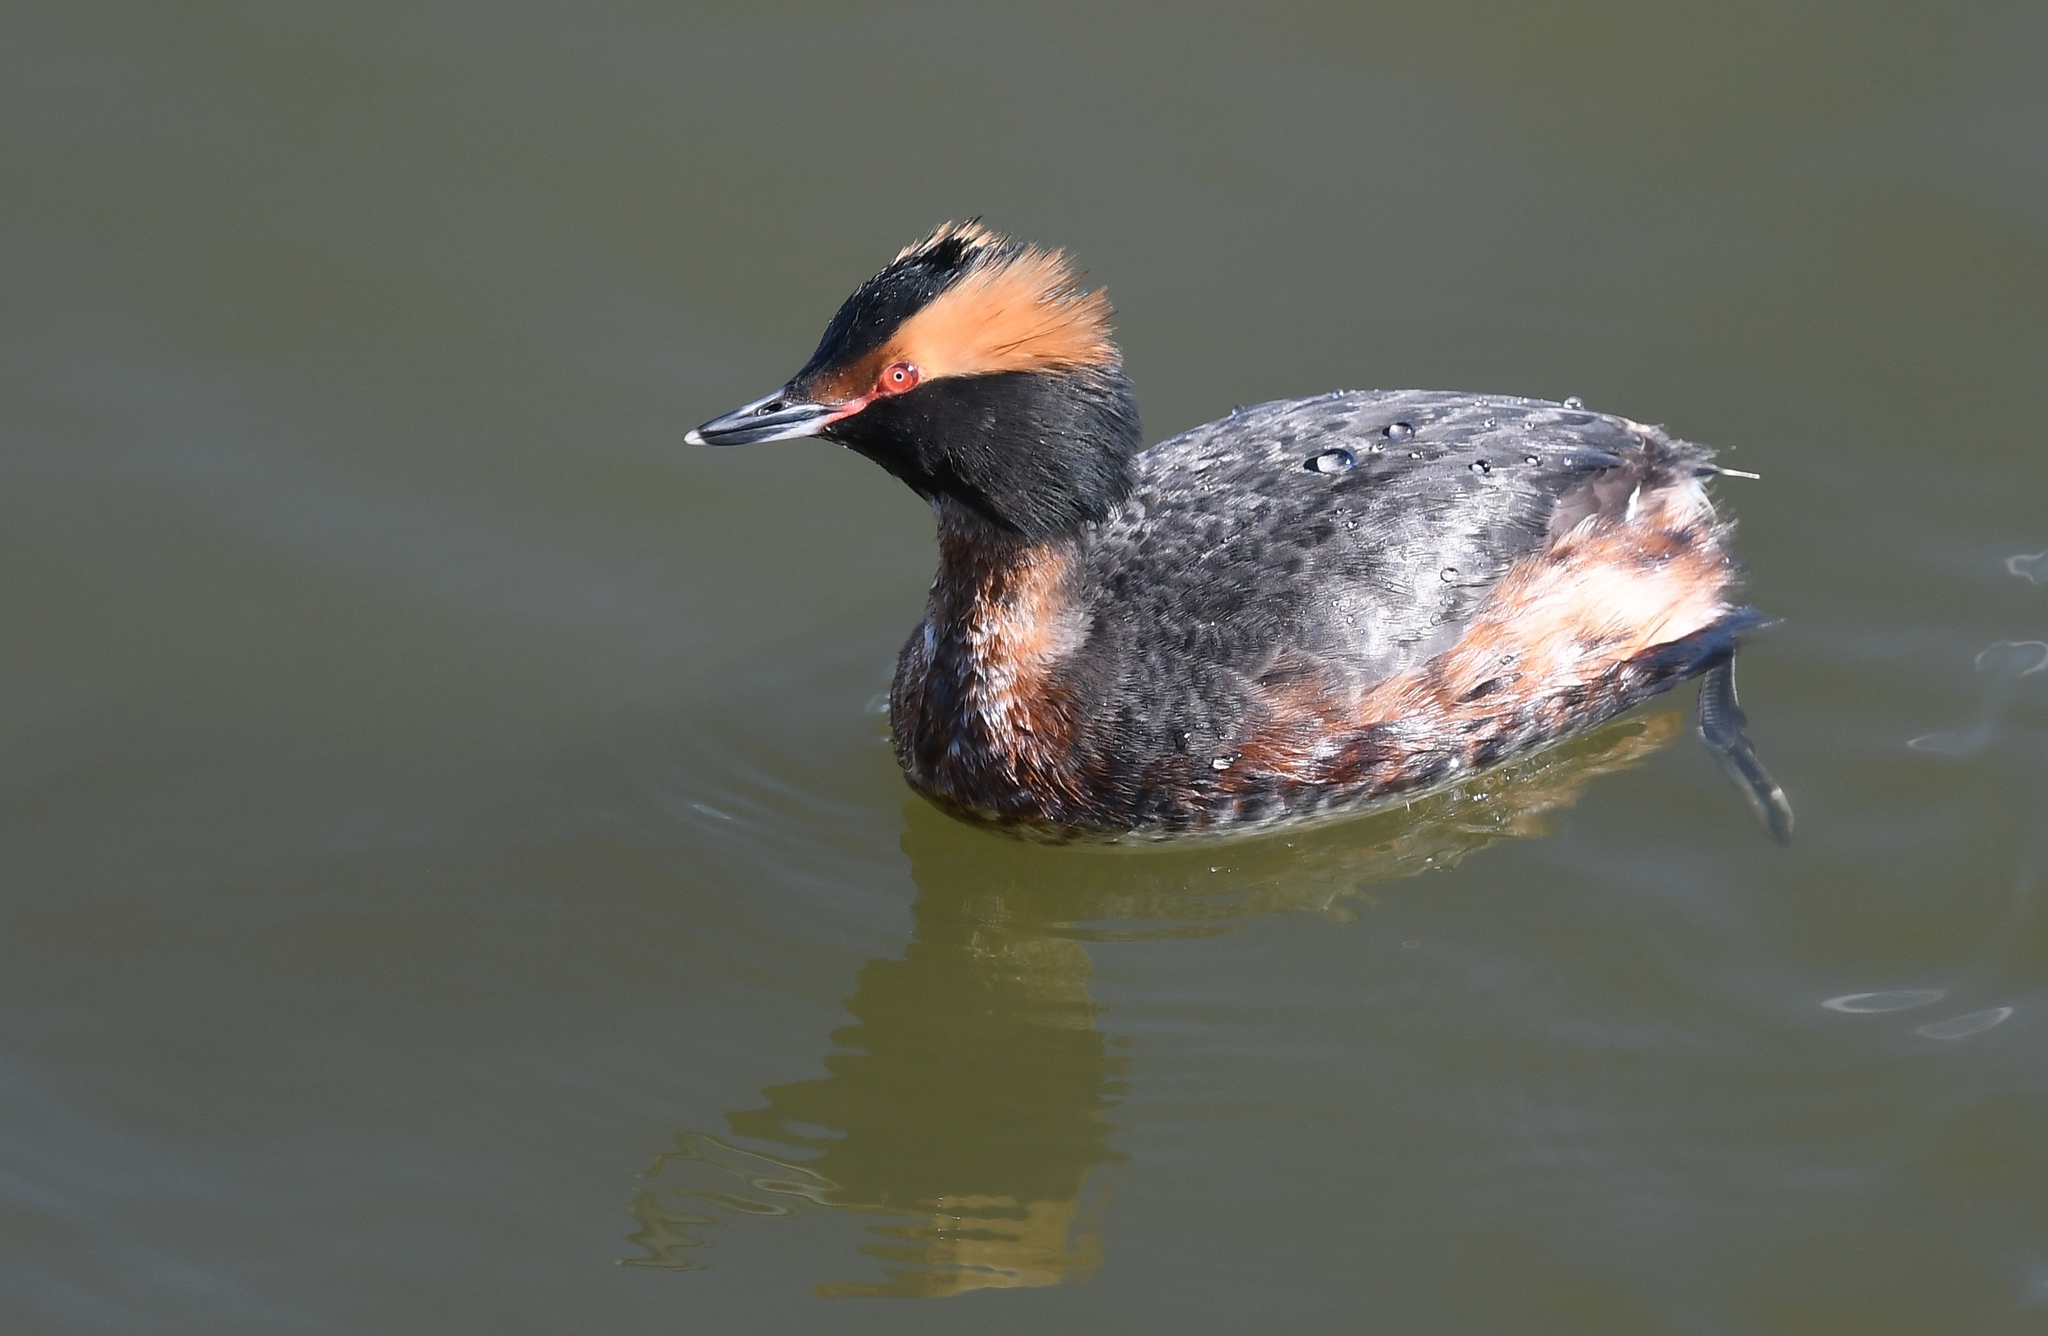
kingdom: Animalia
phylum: Chordata
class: Aves
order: Podicipediformes
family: Podicipedidae
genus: Podiceps
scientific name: Podiceps auritus
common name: Horned grebe
